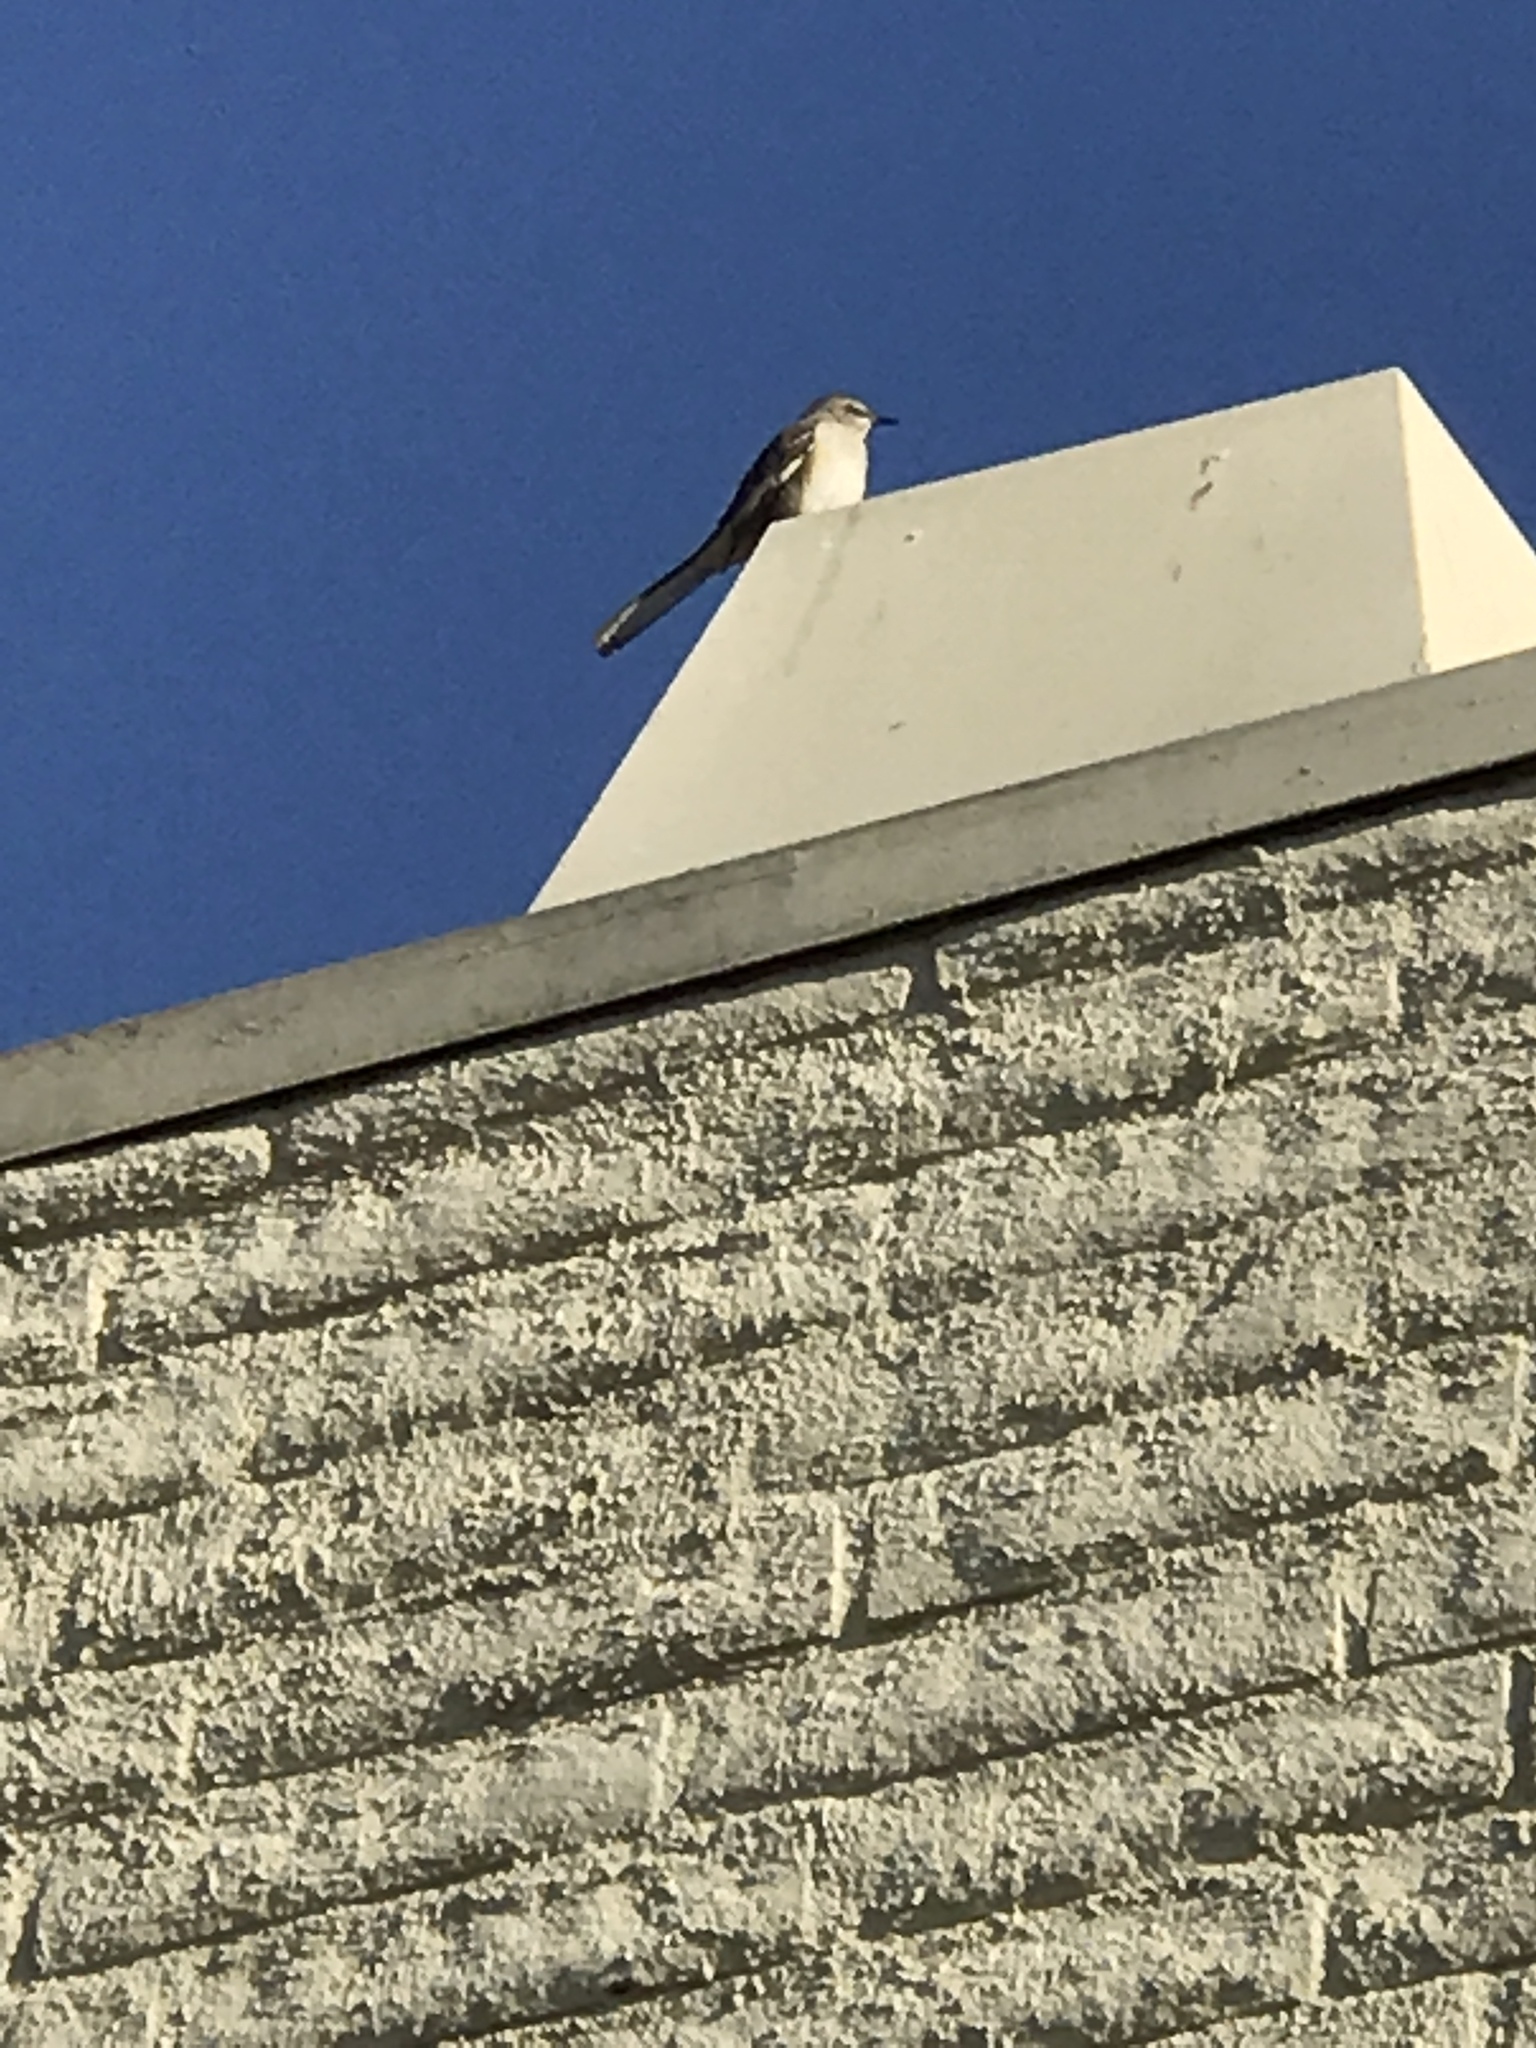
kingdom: Animalia
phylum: Chordata
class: Aves
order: Passeriformes
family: Mimidae
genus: Mimus
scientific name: Mimus polyglottos
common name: Northern mockingbird
